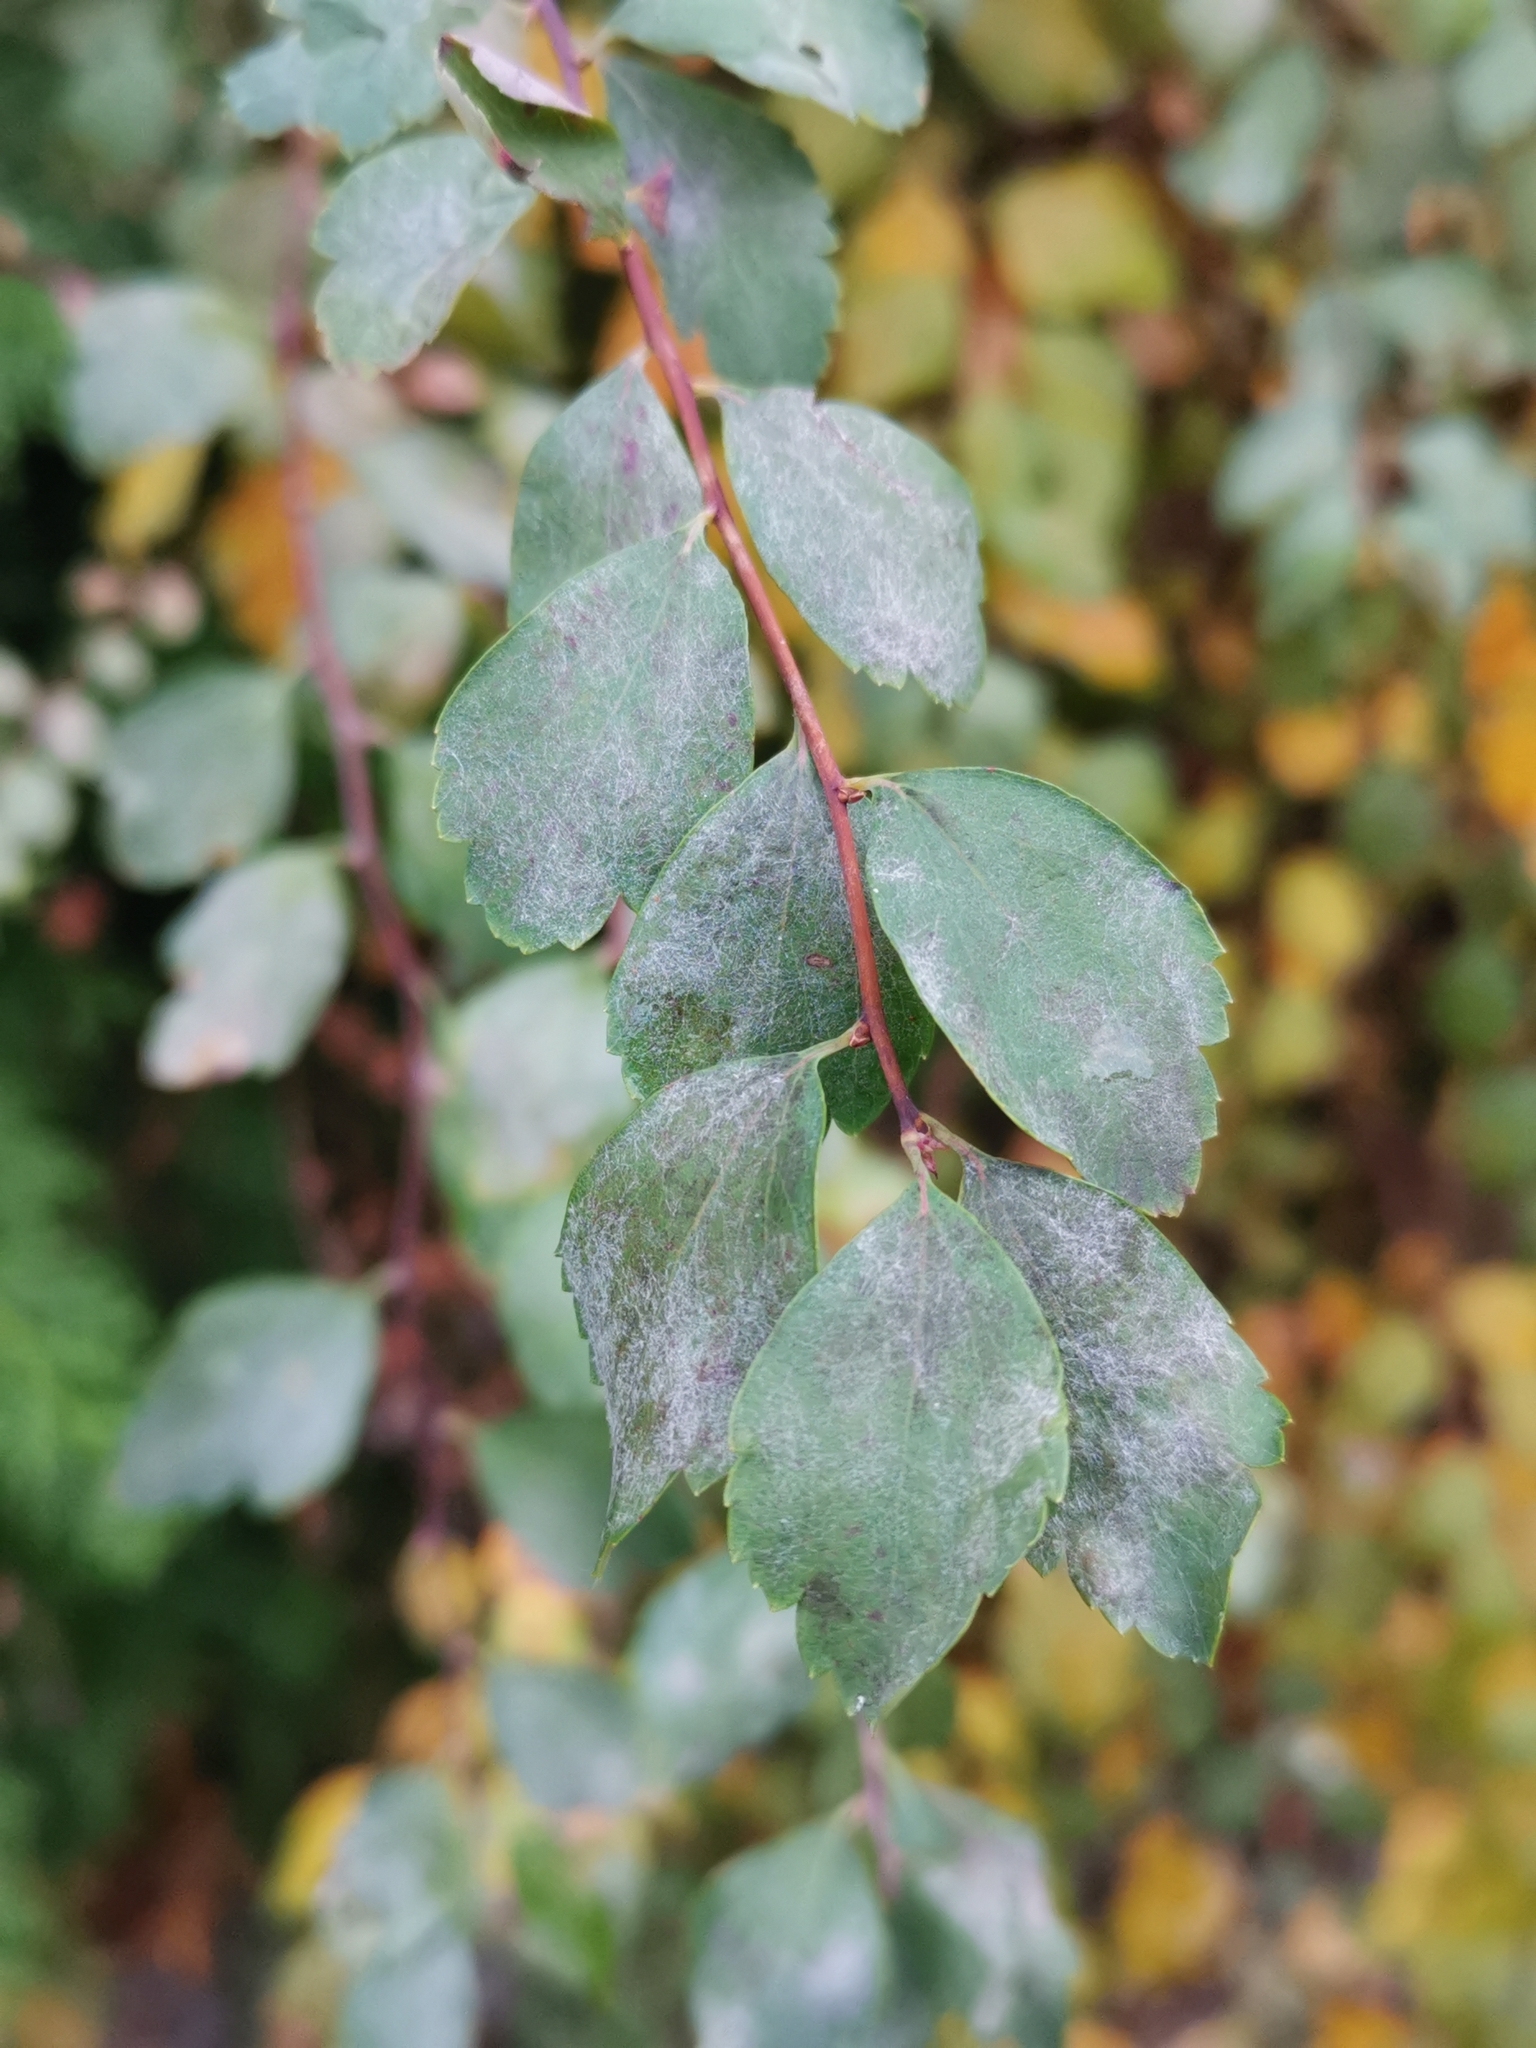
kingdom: Fungi
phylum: Ascomycota
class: Leotiomycetes
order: Helotiales
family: Erysiphaceae
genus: Podosphaera
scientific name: Podosphaera spiraeae
